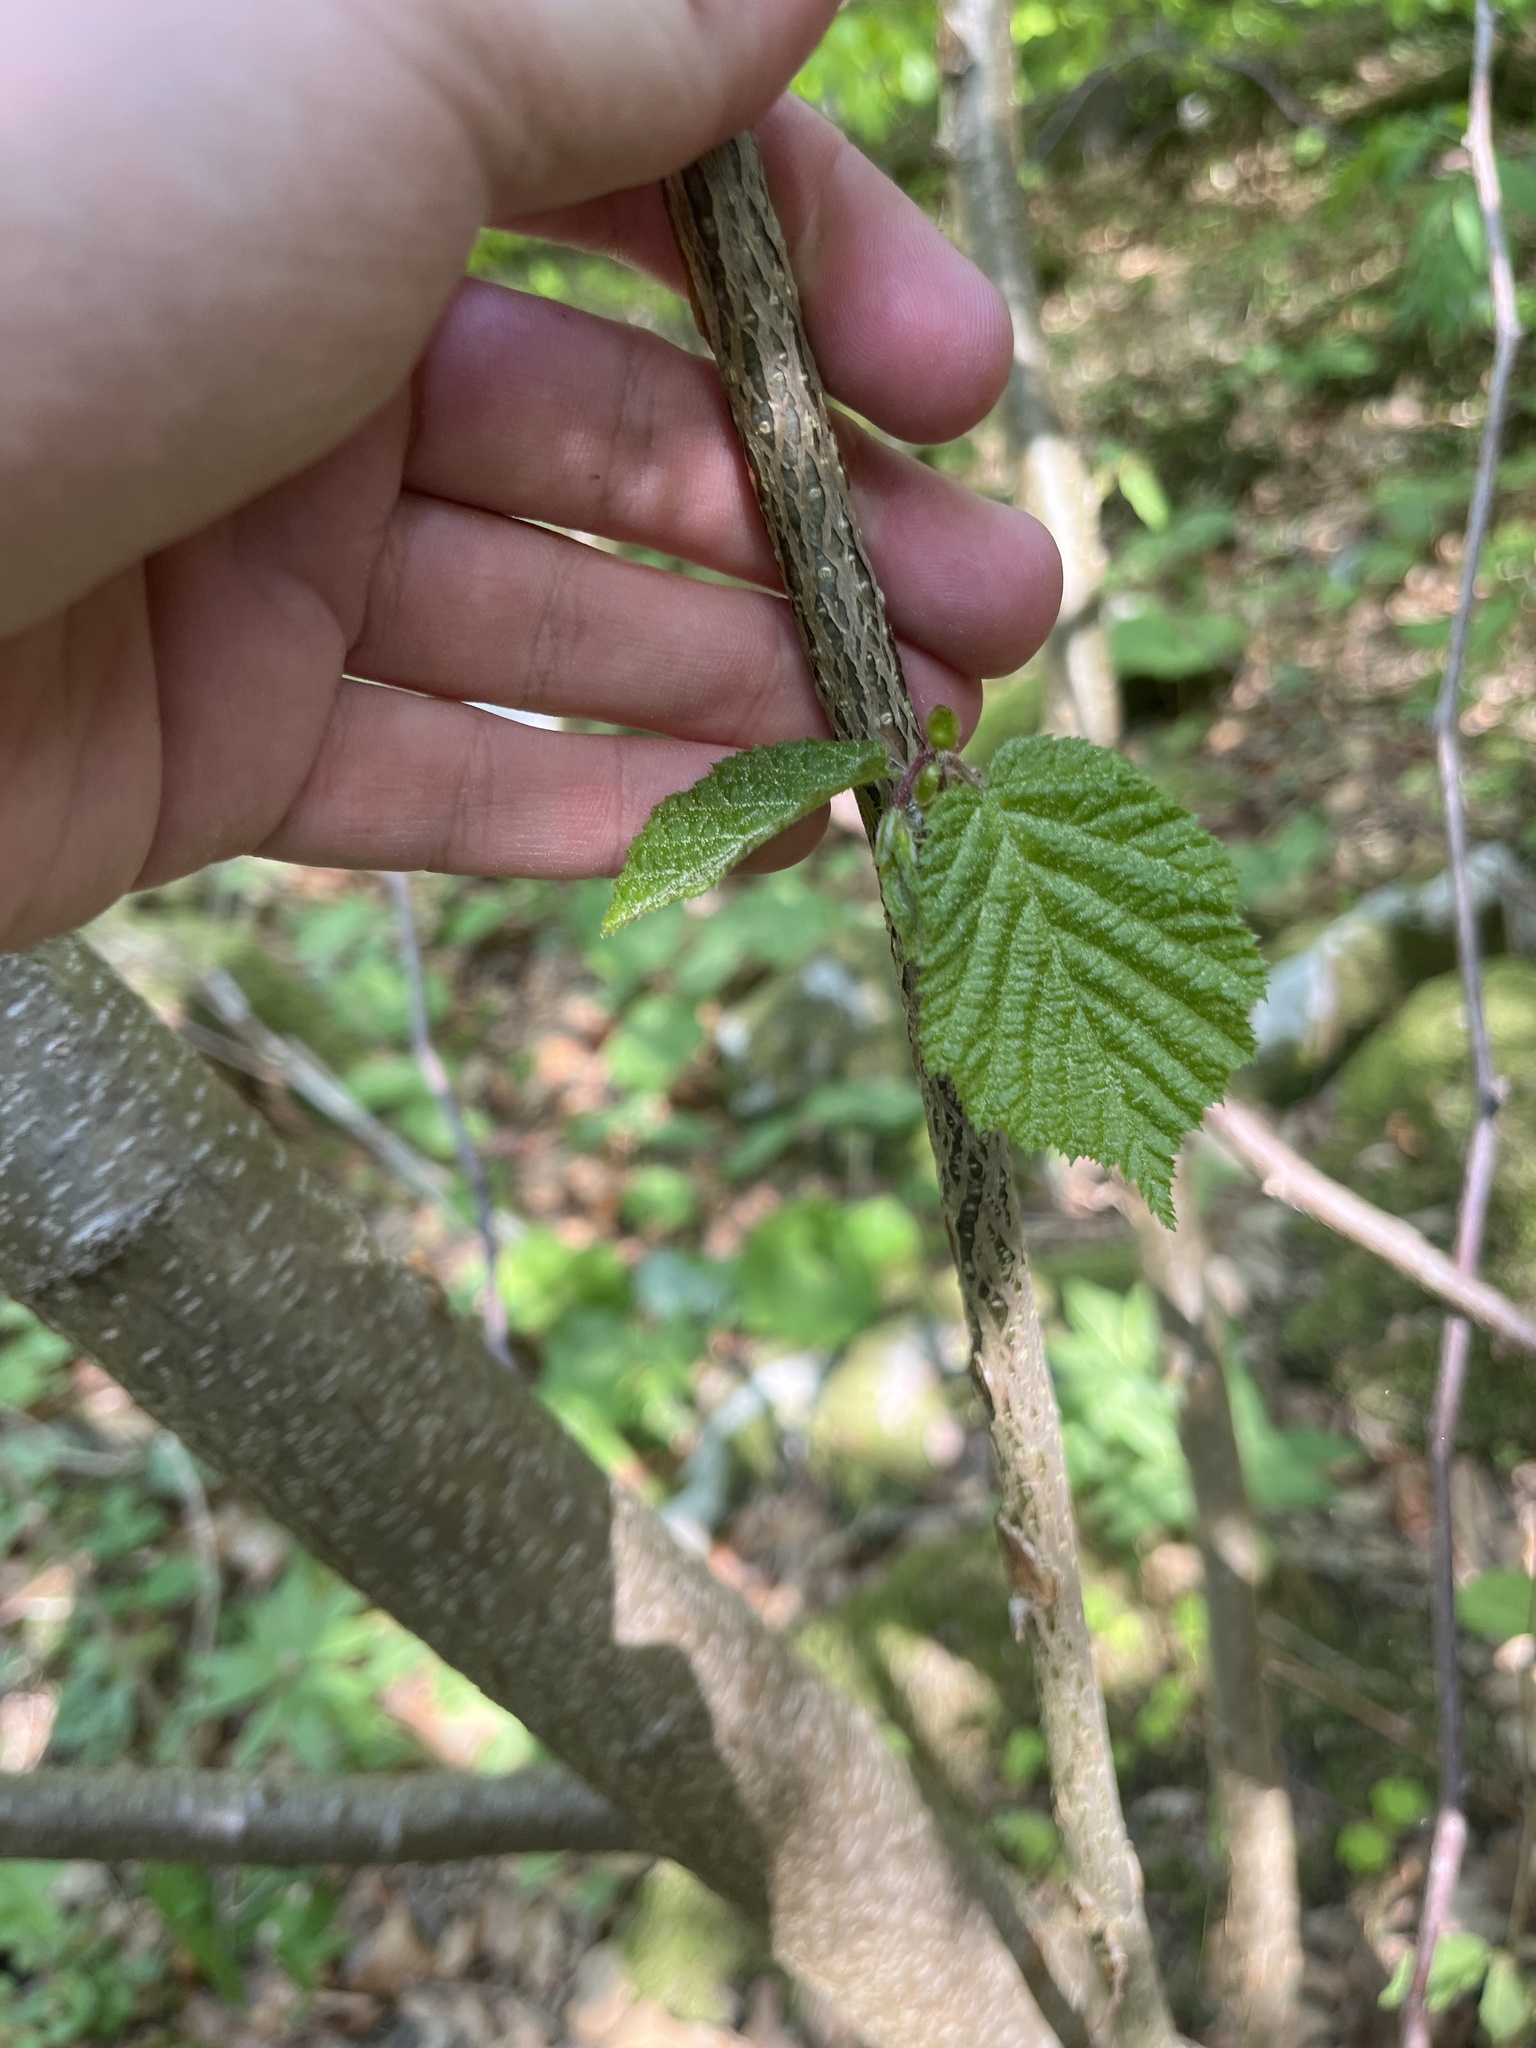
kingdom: Plantae
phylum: Tracheophyta
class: Magnoliopsida
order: Fagales
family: Betulaceae
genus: Corylus
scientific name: Corylus avellana
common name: European hazel
